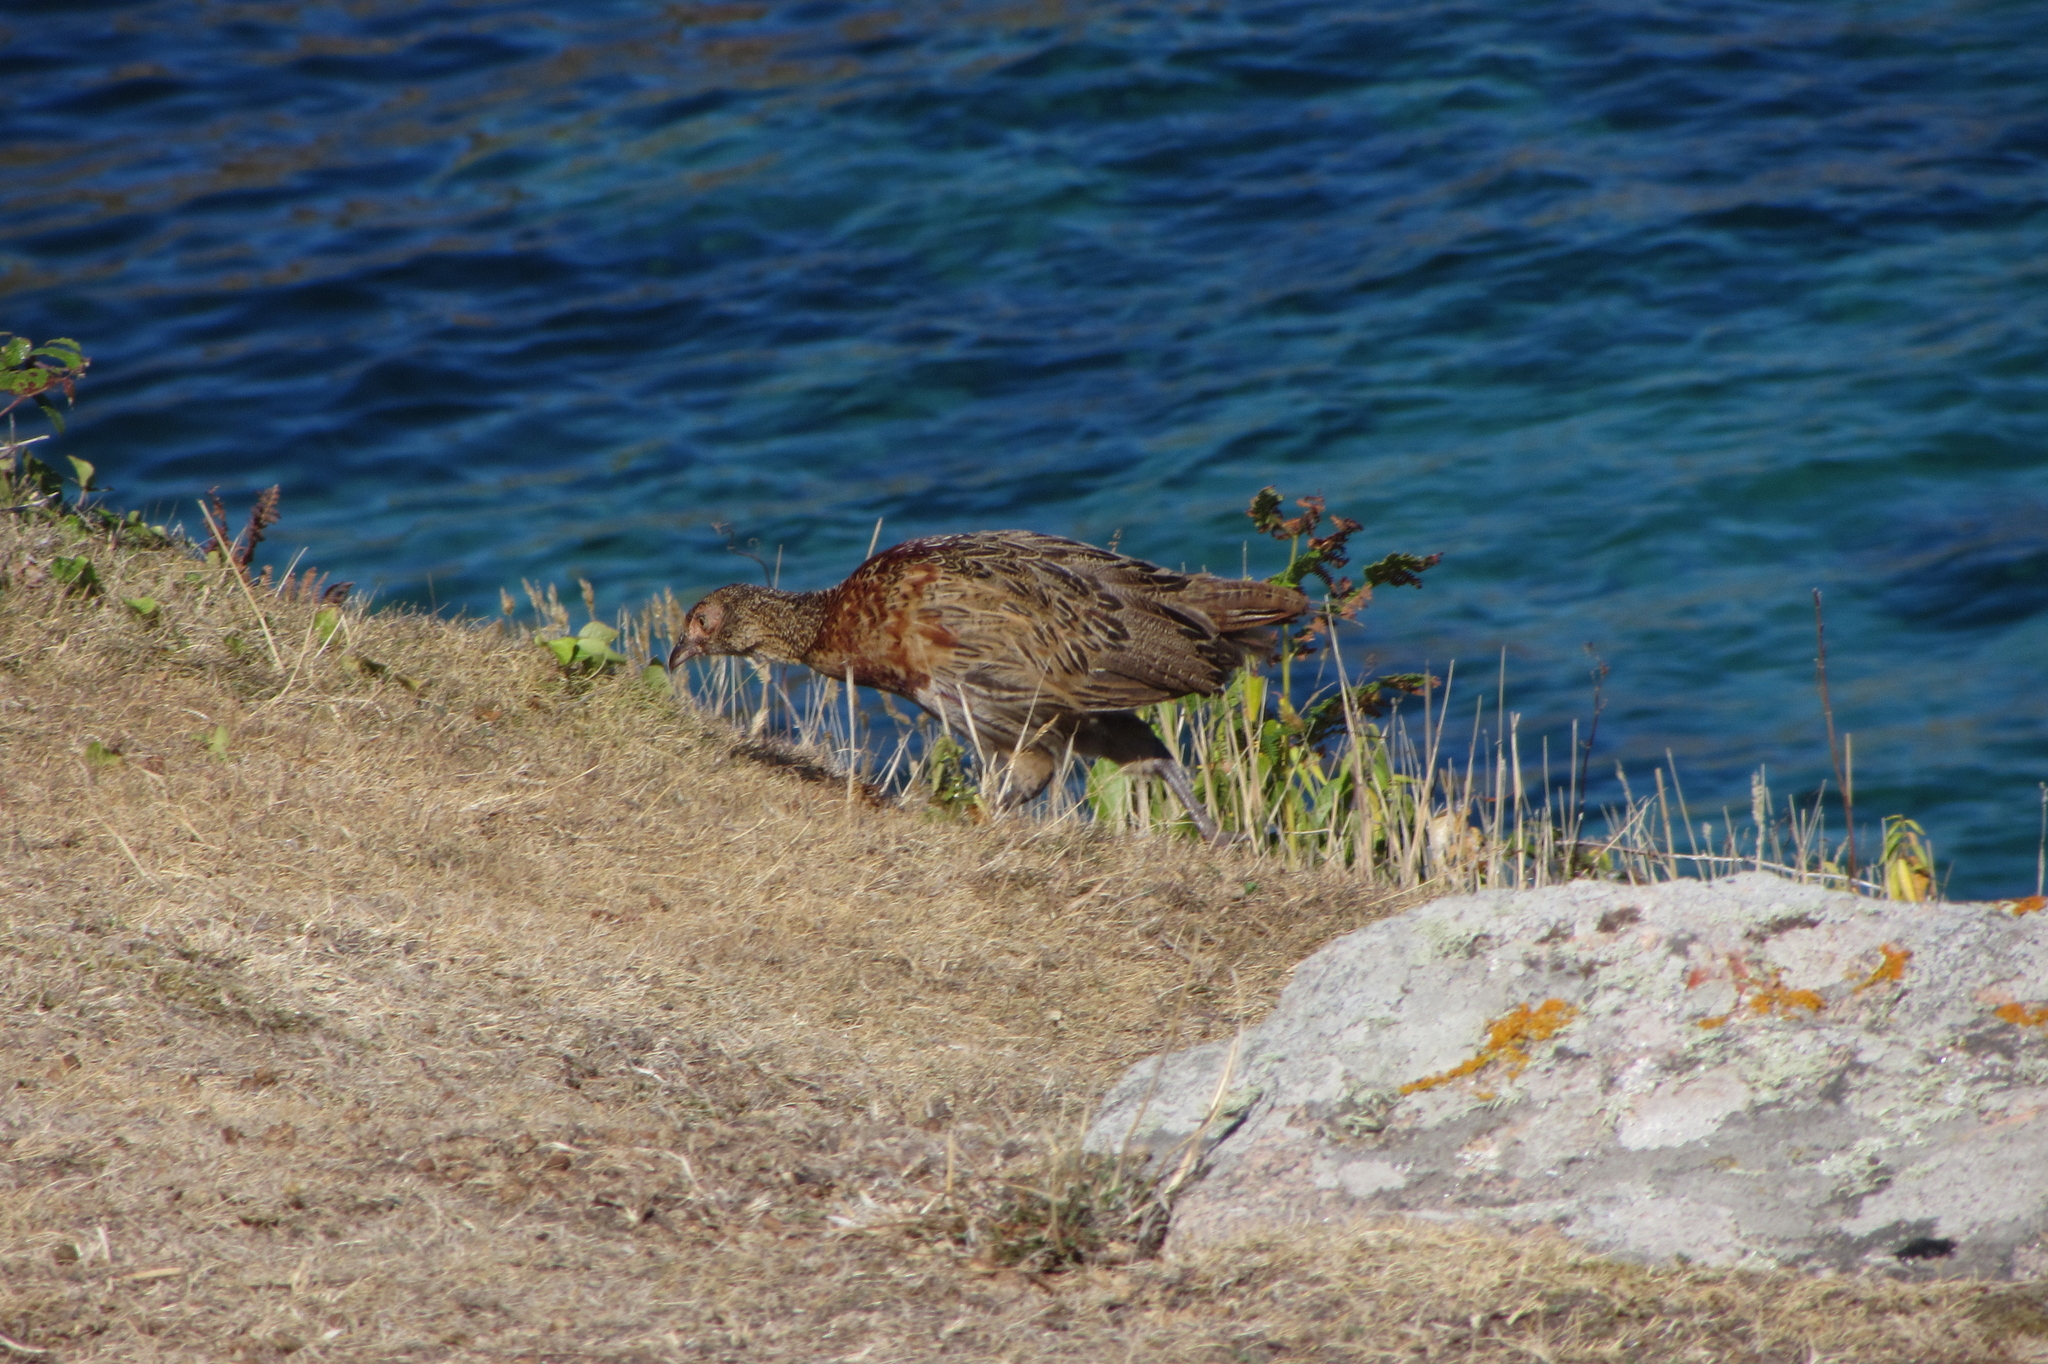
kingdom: Animalia
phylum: Chordata
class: Aves
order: Galliformes
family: Phasianidae
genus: Phasianus
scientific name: Phasianus colchicus
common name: Common pheasant
